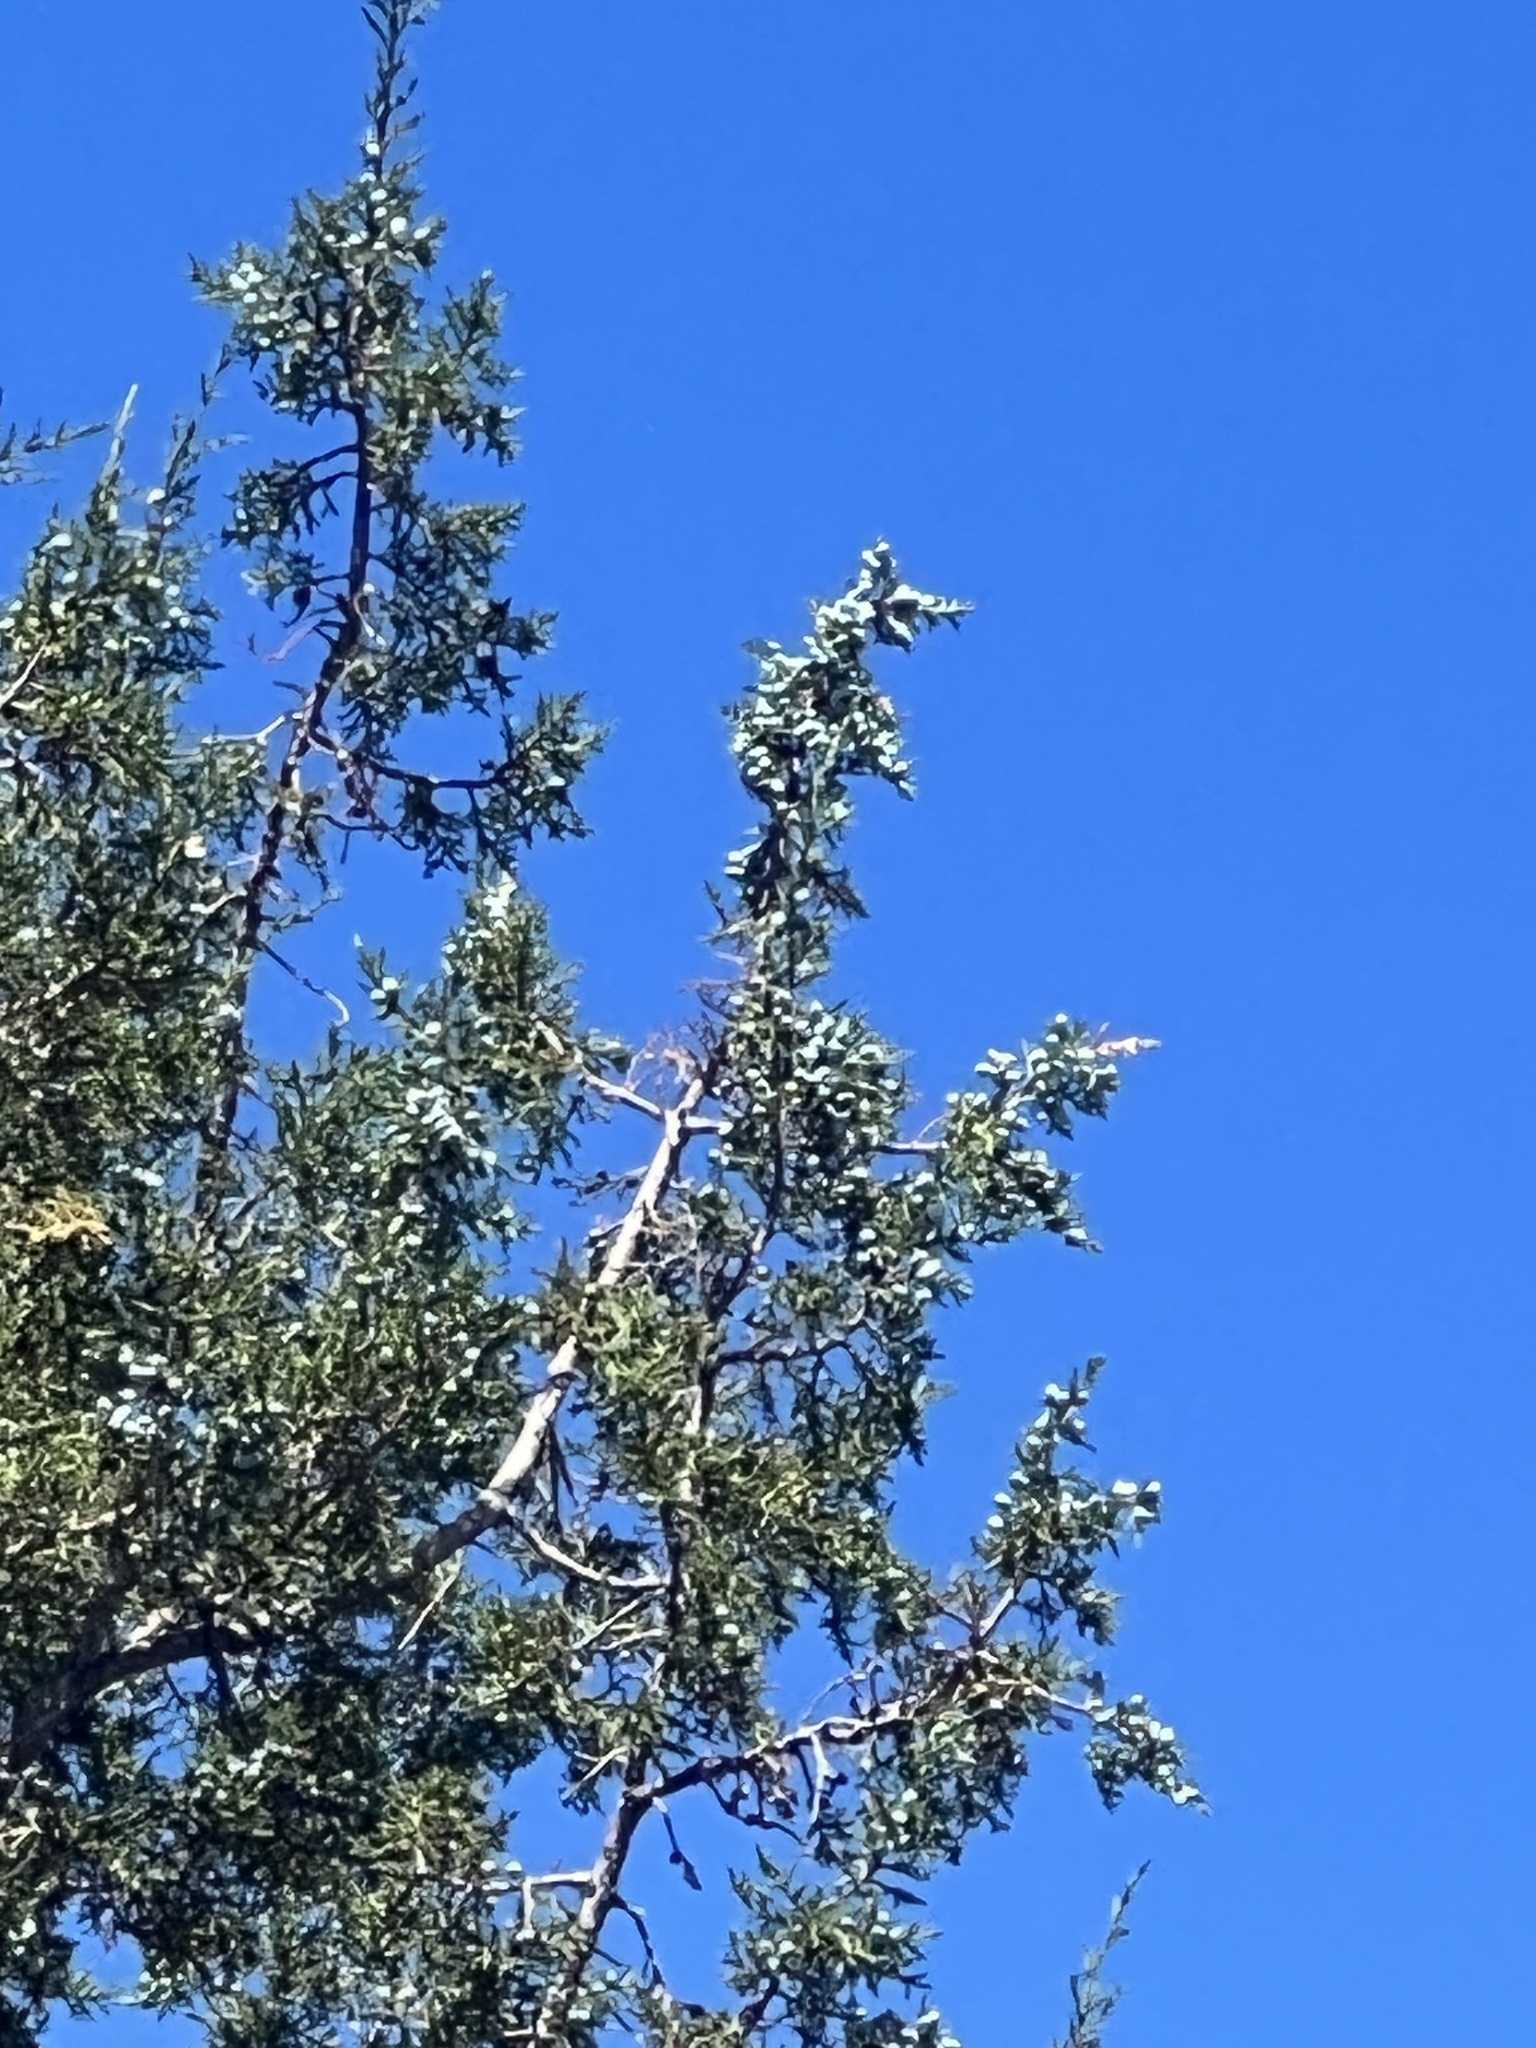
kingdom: Plantae
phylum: Tracheophyta
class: Pinopsida
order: Pinales
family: Cupressaceae
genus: Juniperus
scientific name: Juniperus osteosperma
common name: Utah juniper
